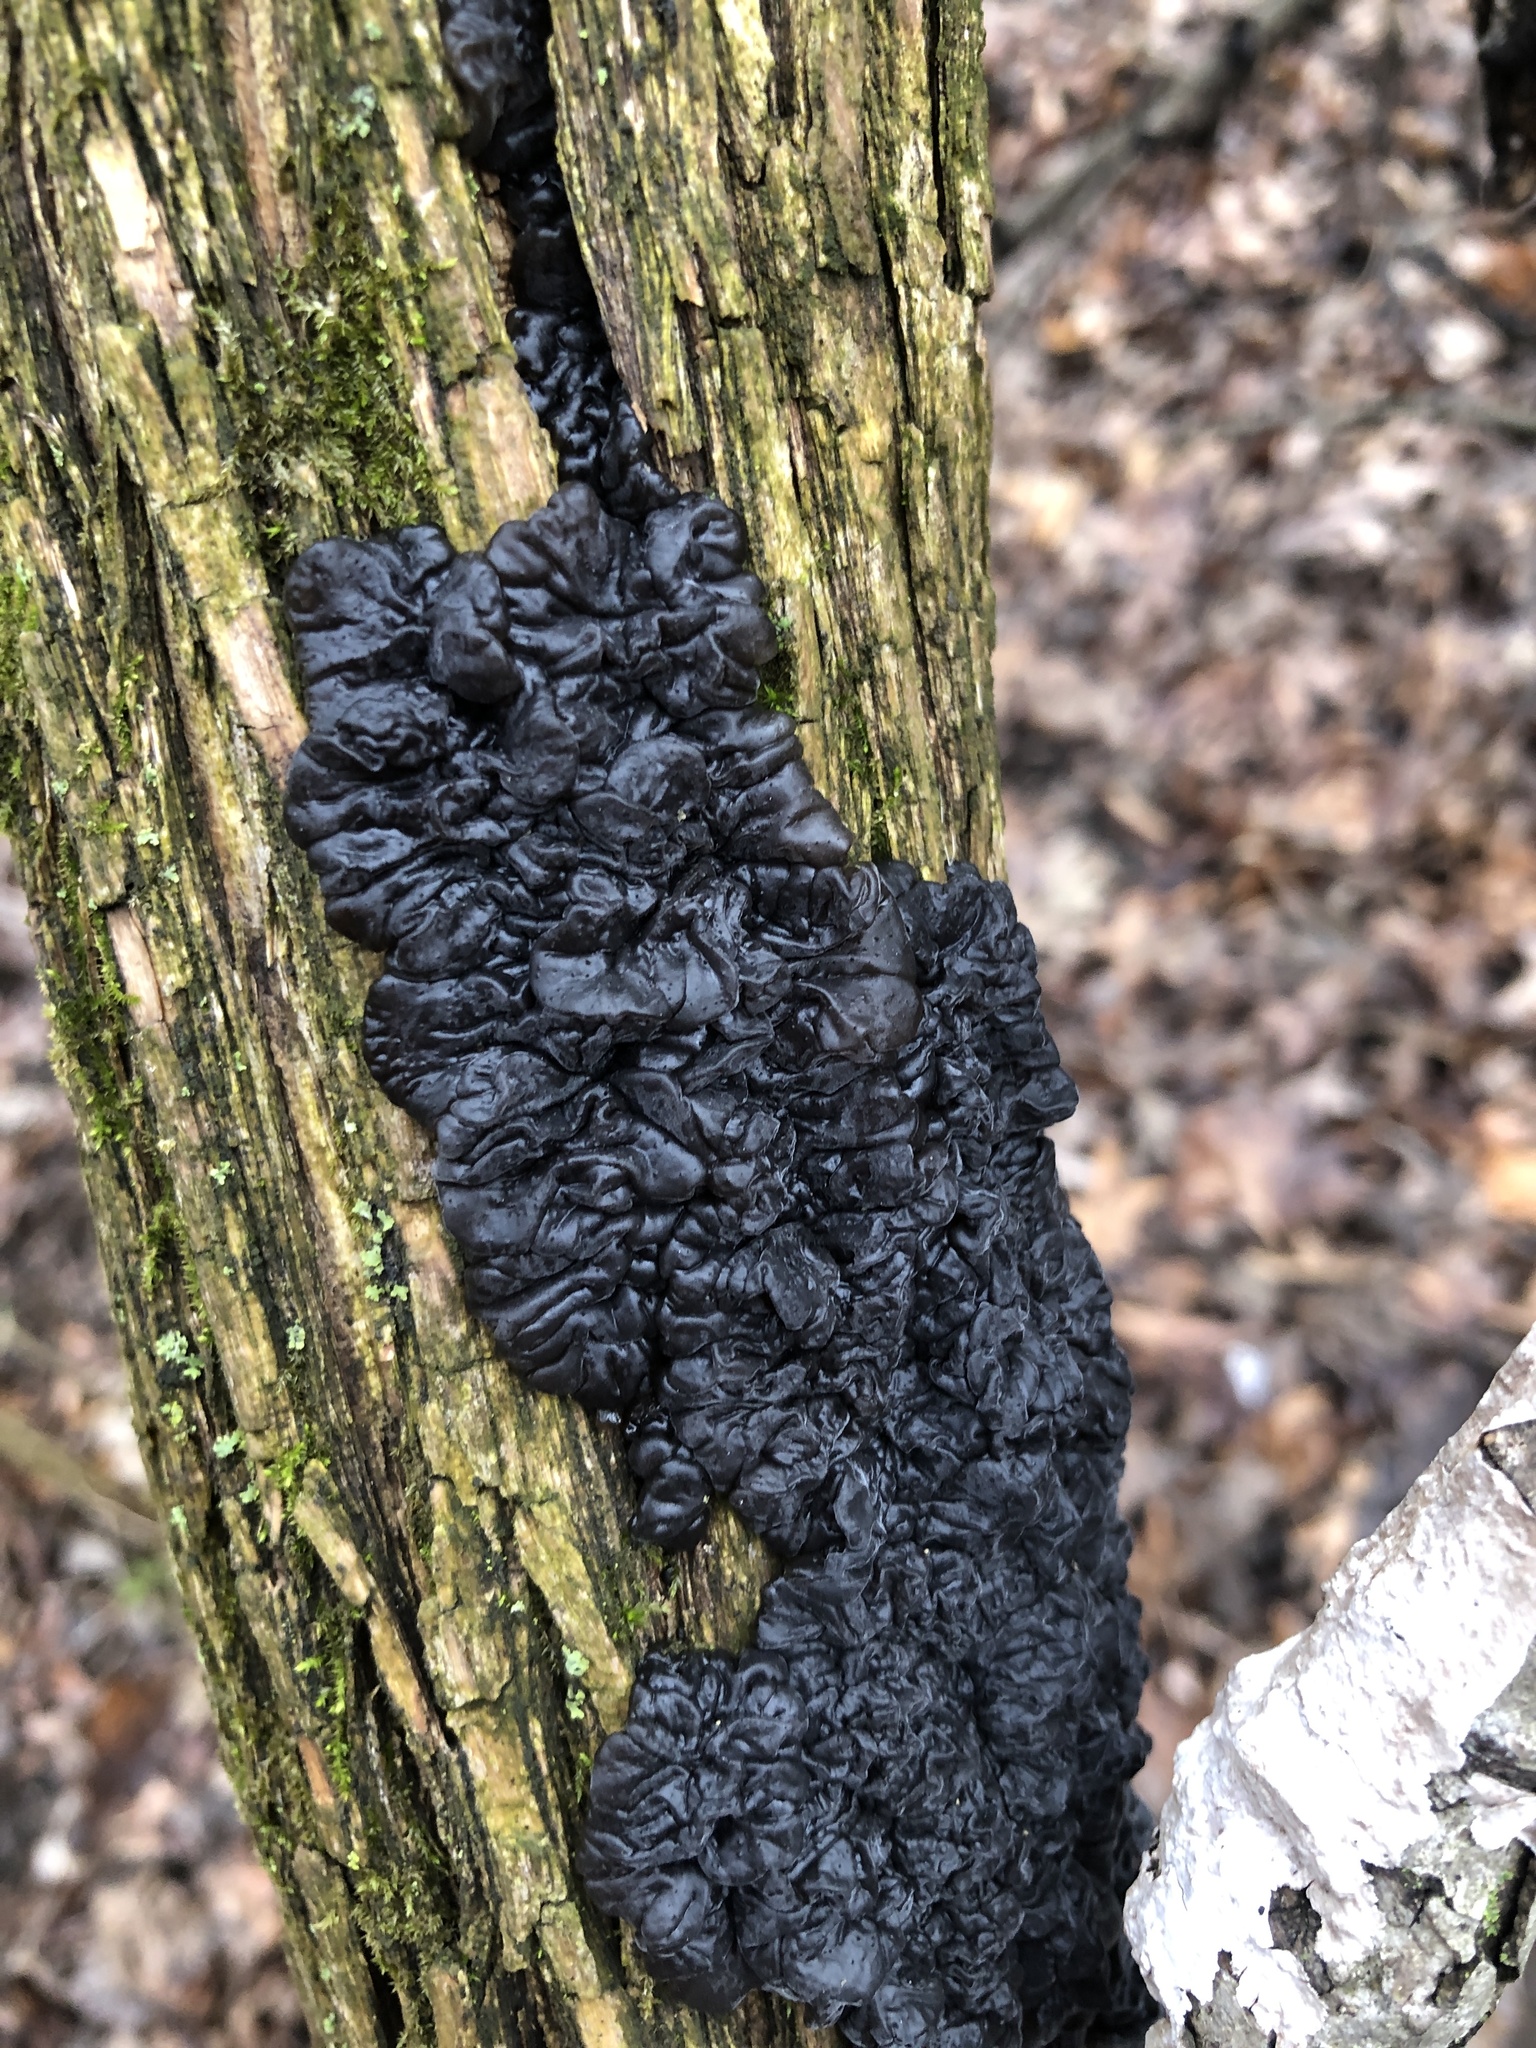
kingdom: Fungi
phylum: Basidiomycota
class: Agaricomycetes
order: Auriculariales
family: Auriculariaceae
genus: Exidia
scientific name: Exidia glandulosa
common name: Witches' butter
